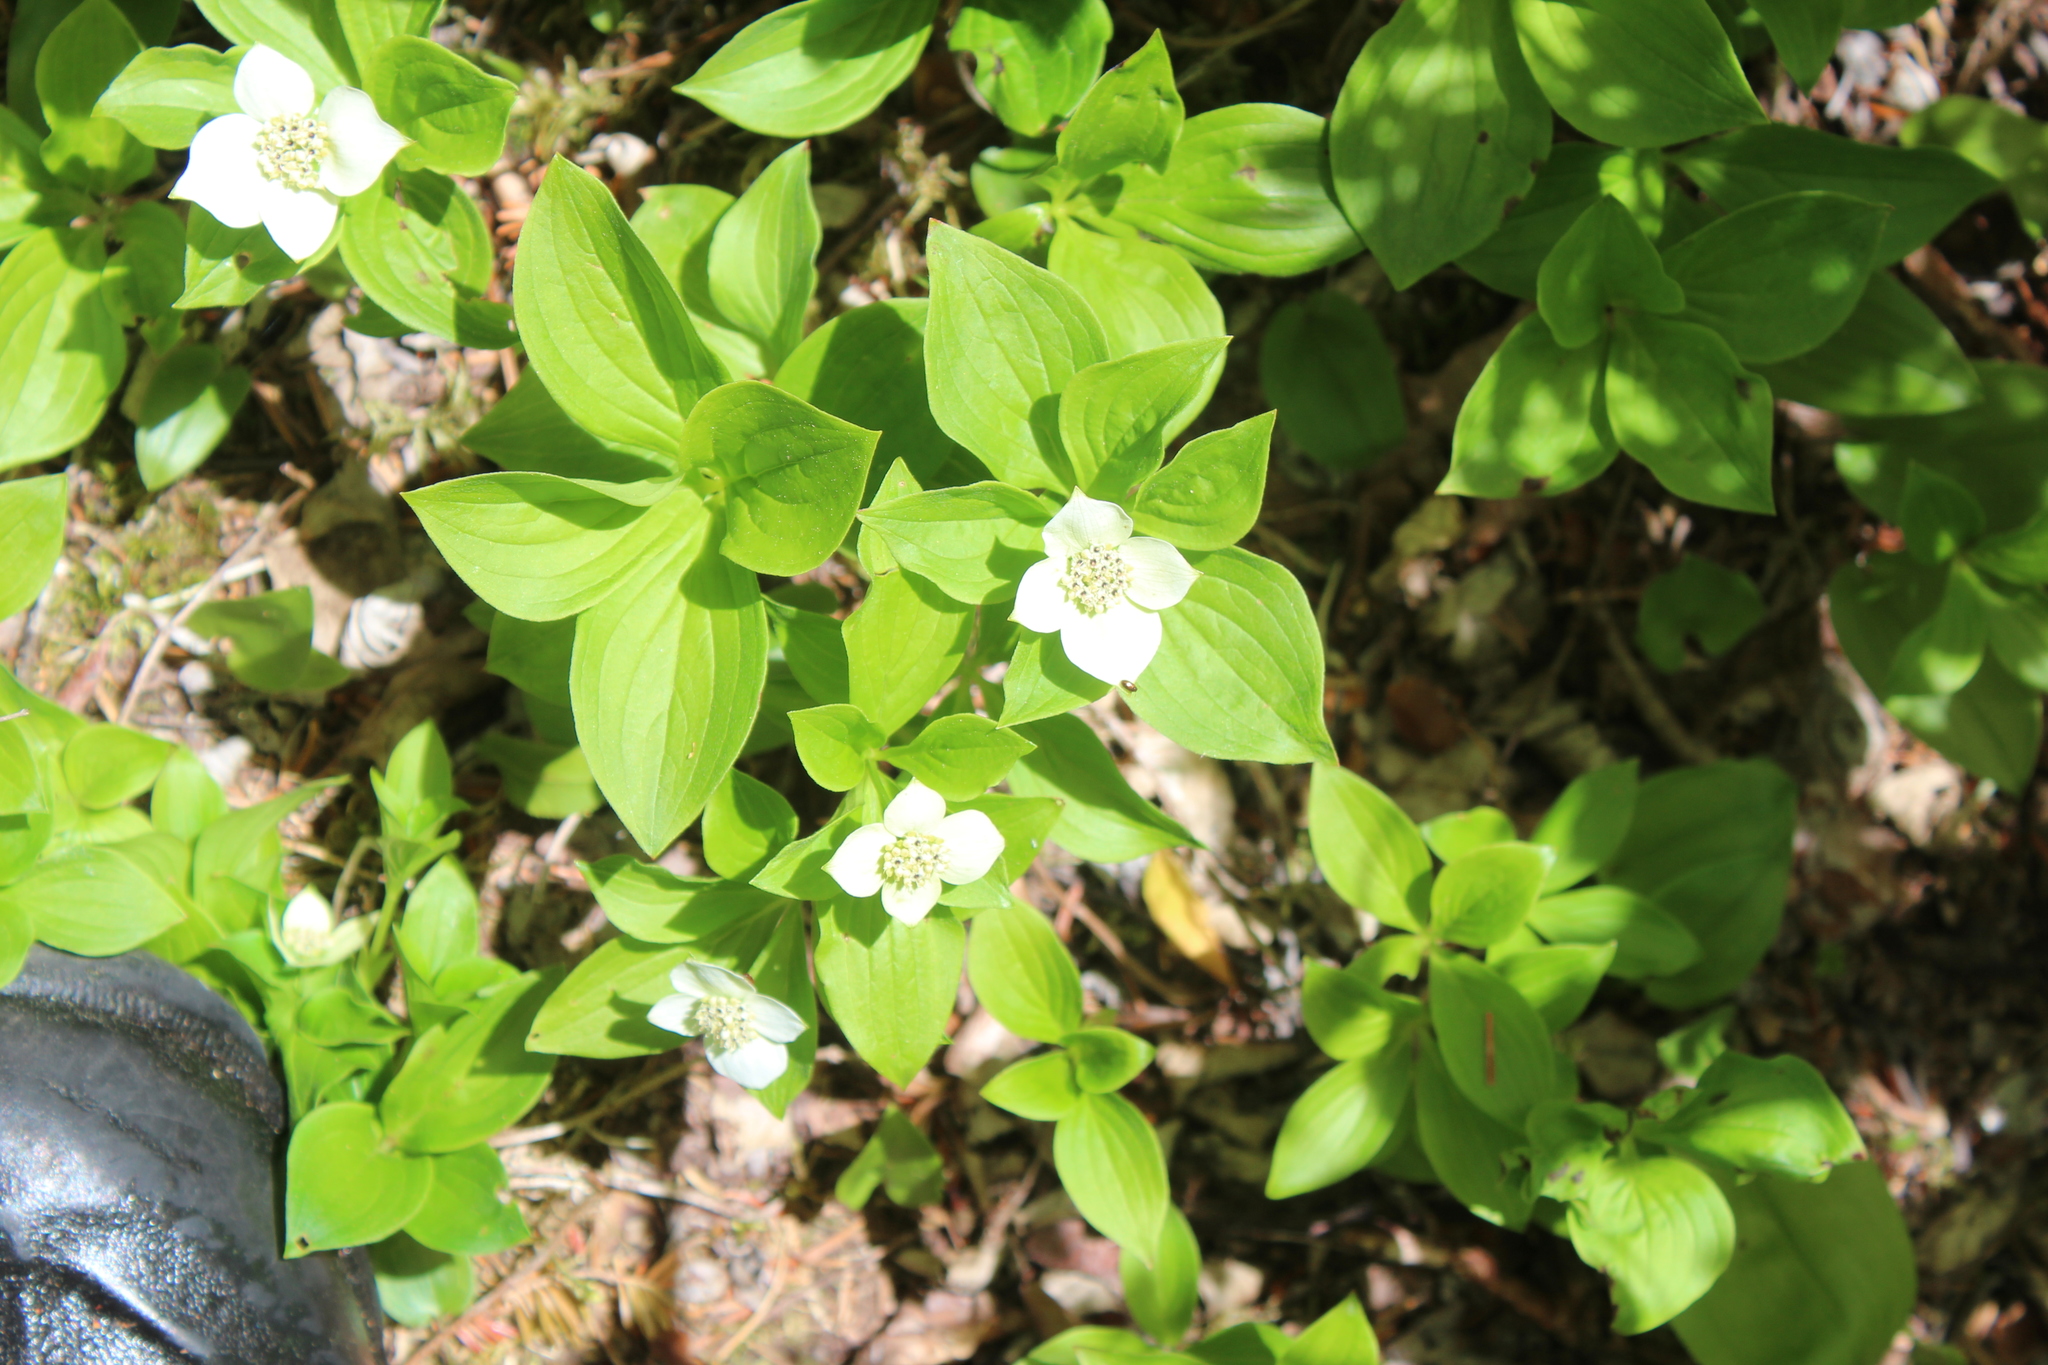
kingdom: Plantae
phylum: Tracheophyta
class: Magnoliopsida
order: Cornales
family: Cornaceae
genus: Cornus
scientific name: Cornus canadensis
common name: Creeping dogwood
